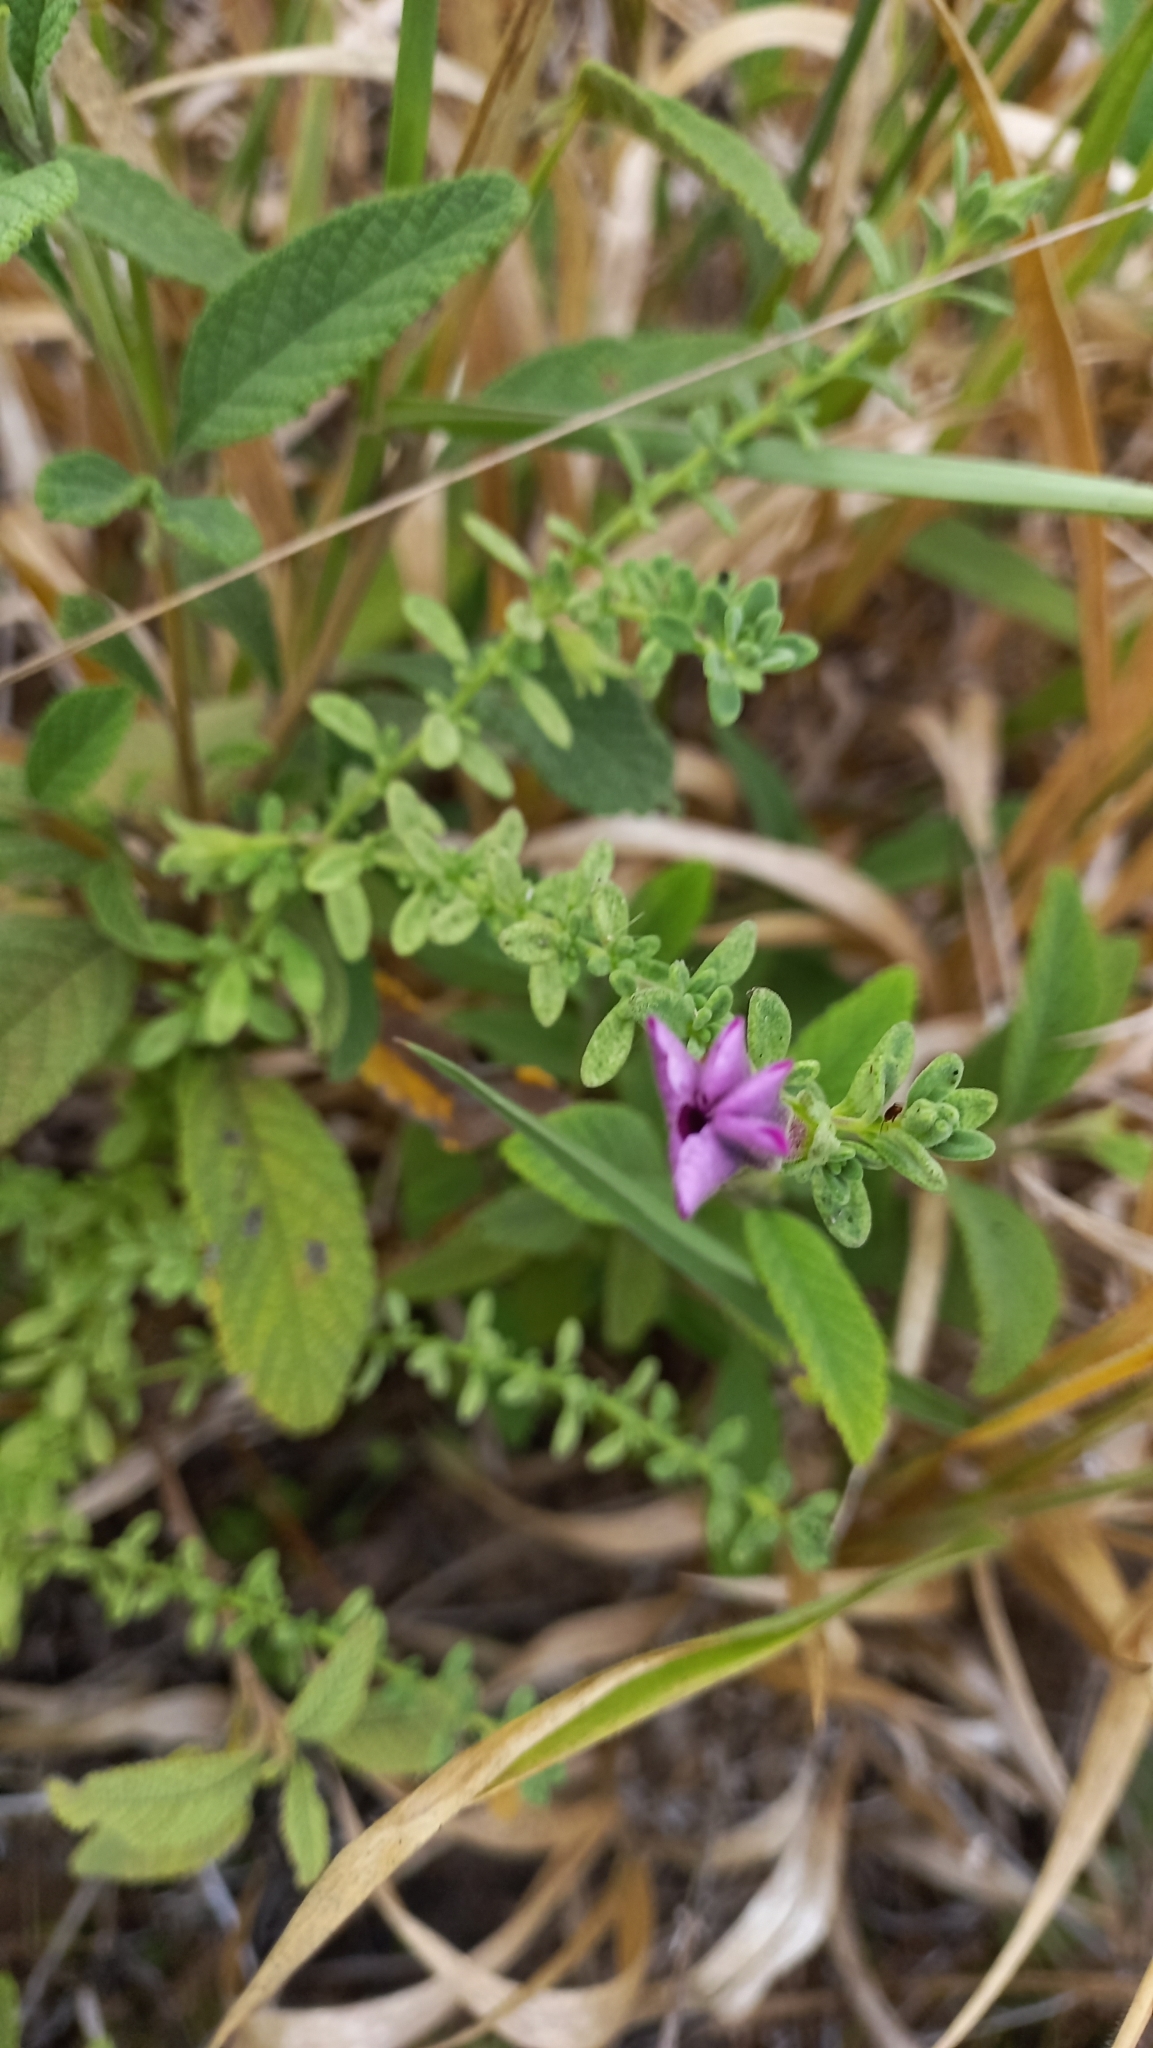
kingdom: Plantae
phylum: Tracheophyta
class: Magnoliopsida
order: Solanales
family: Solanaceae
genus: Calibrachoa
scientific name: Calibrachoa heterophylla
